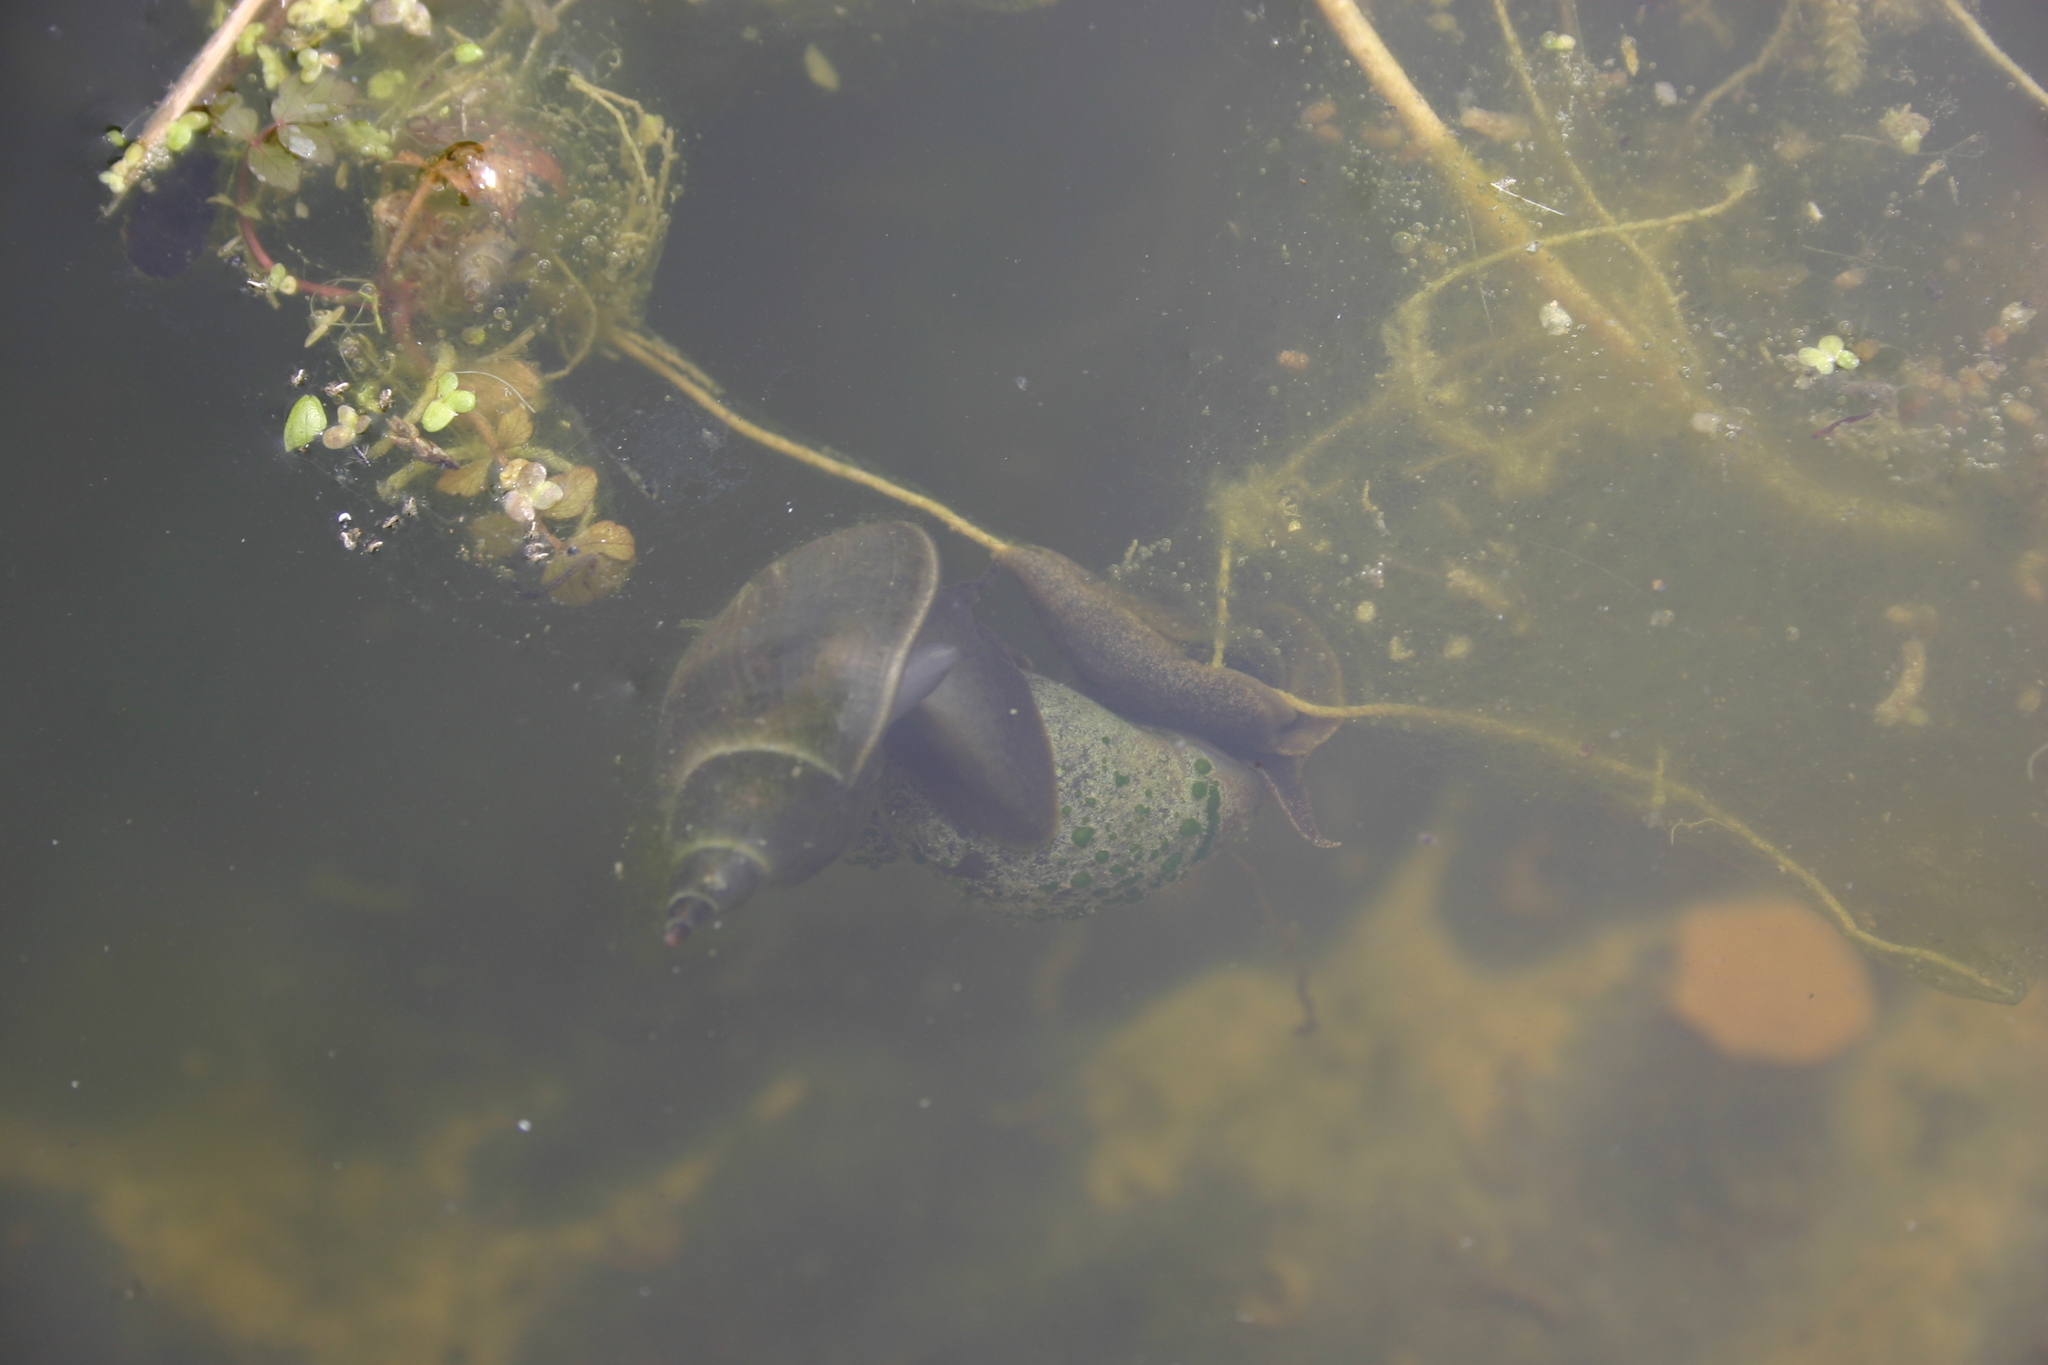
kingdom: Animalia
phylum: Mollusca
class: Gastropoda
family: Lymnaeidae
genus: Lymnaea
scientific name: Lymnaea stagnalis
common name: Great pond snail
